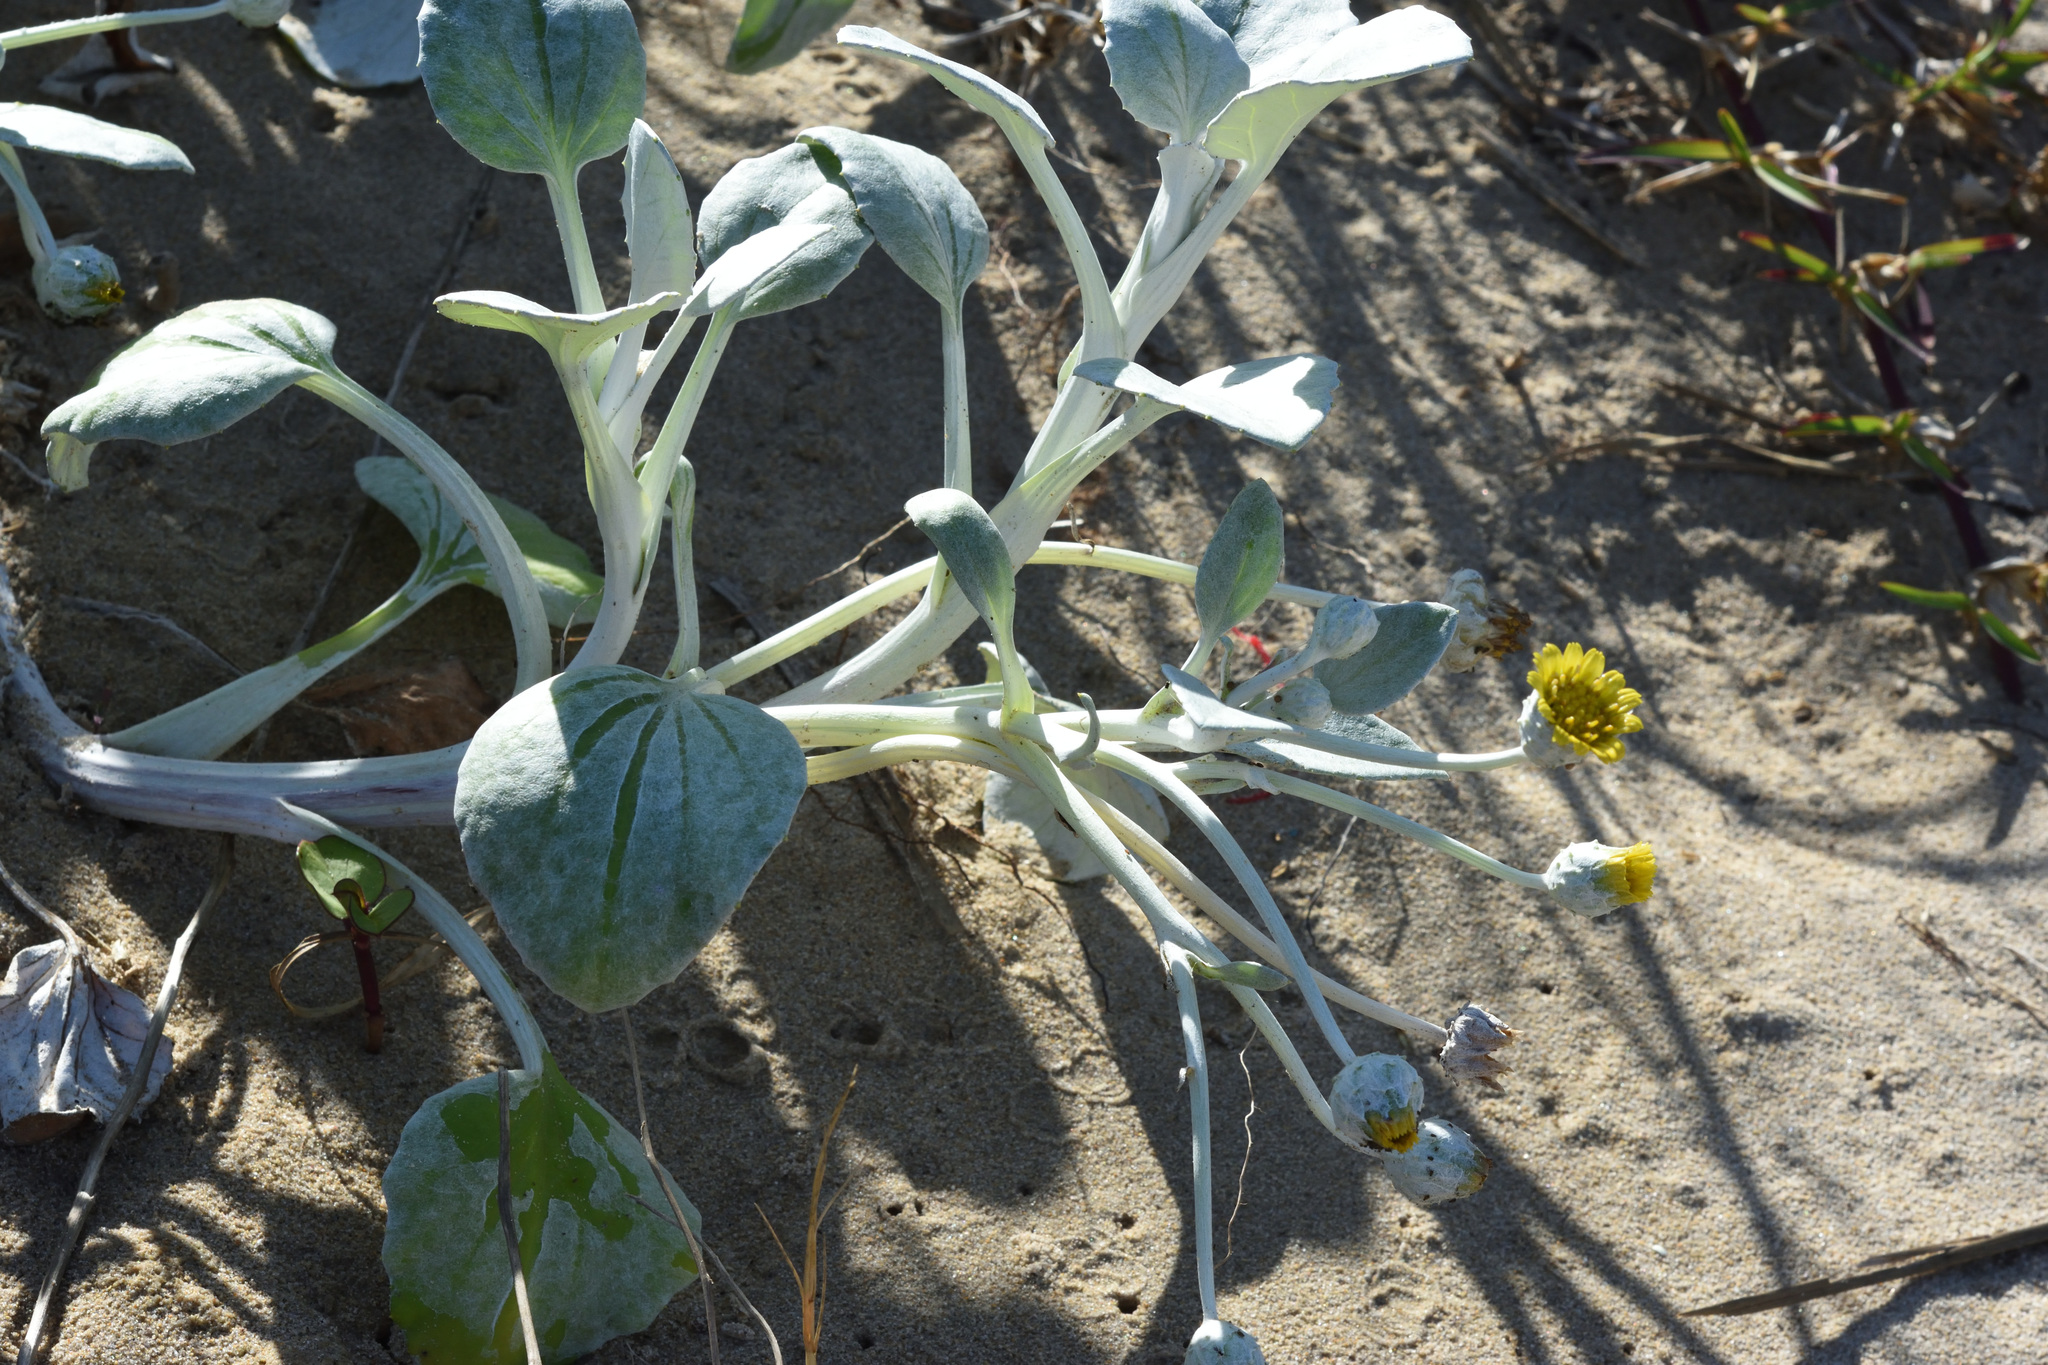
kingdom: Plantae
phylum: Tracheophyta
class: Magnoliopsida
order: Asterales
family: Asteraceae
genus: Arctotheca
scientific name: Arctotheca populifolia
